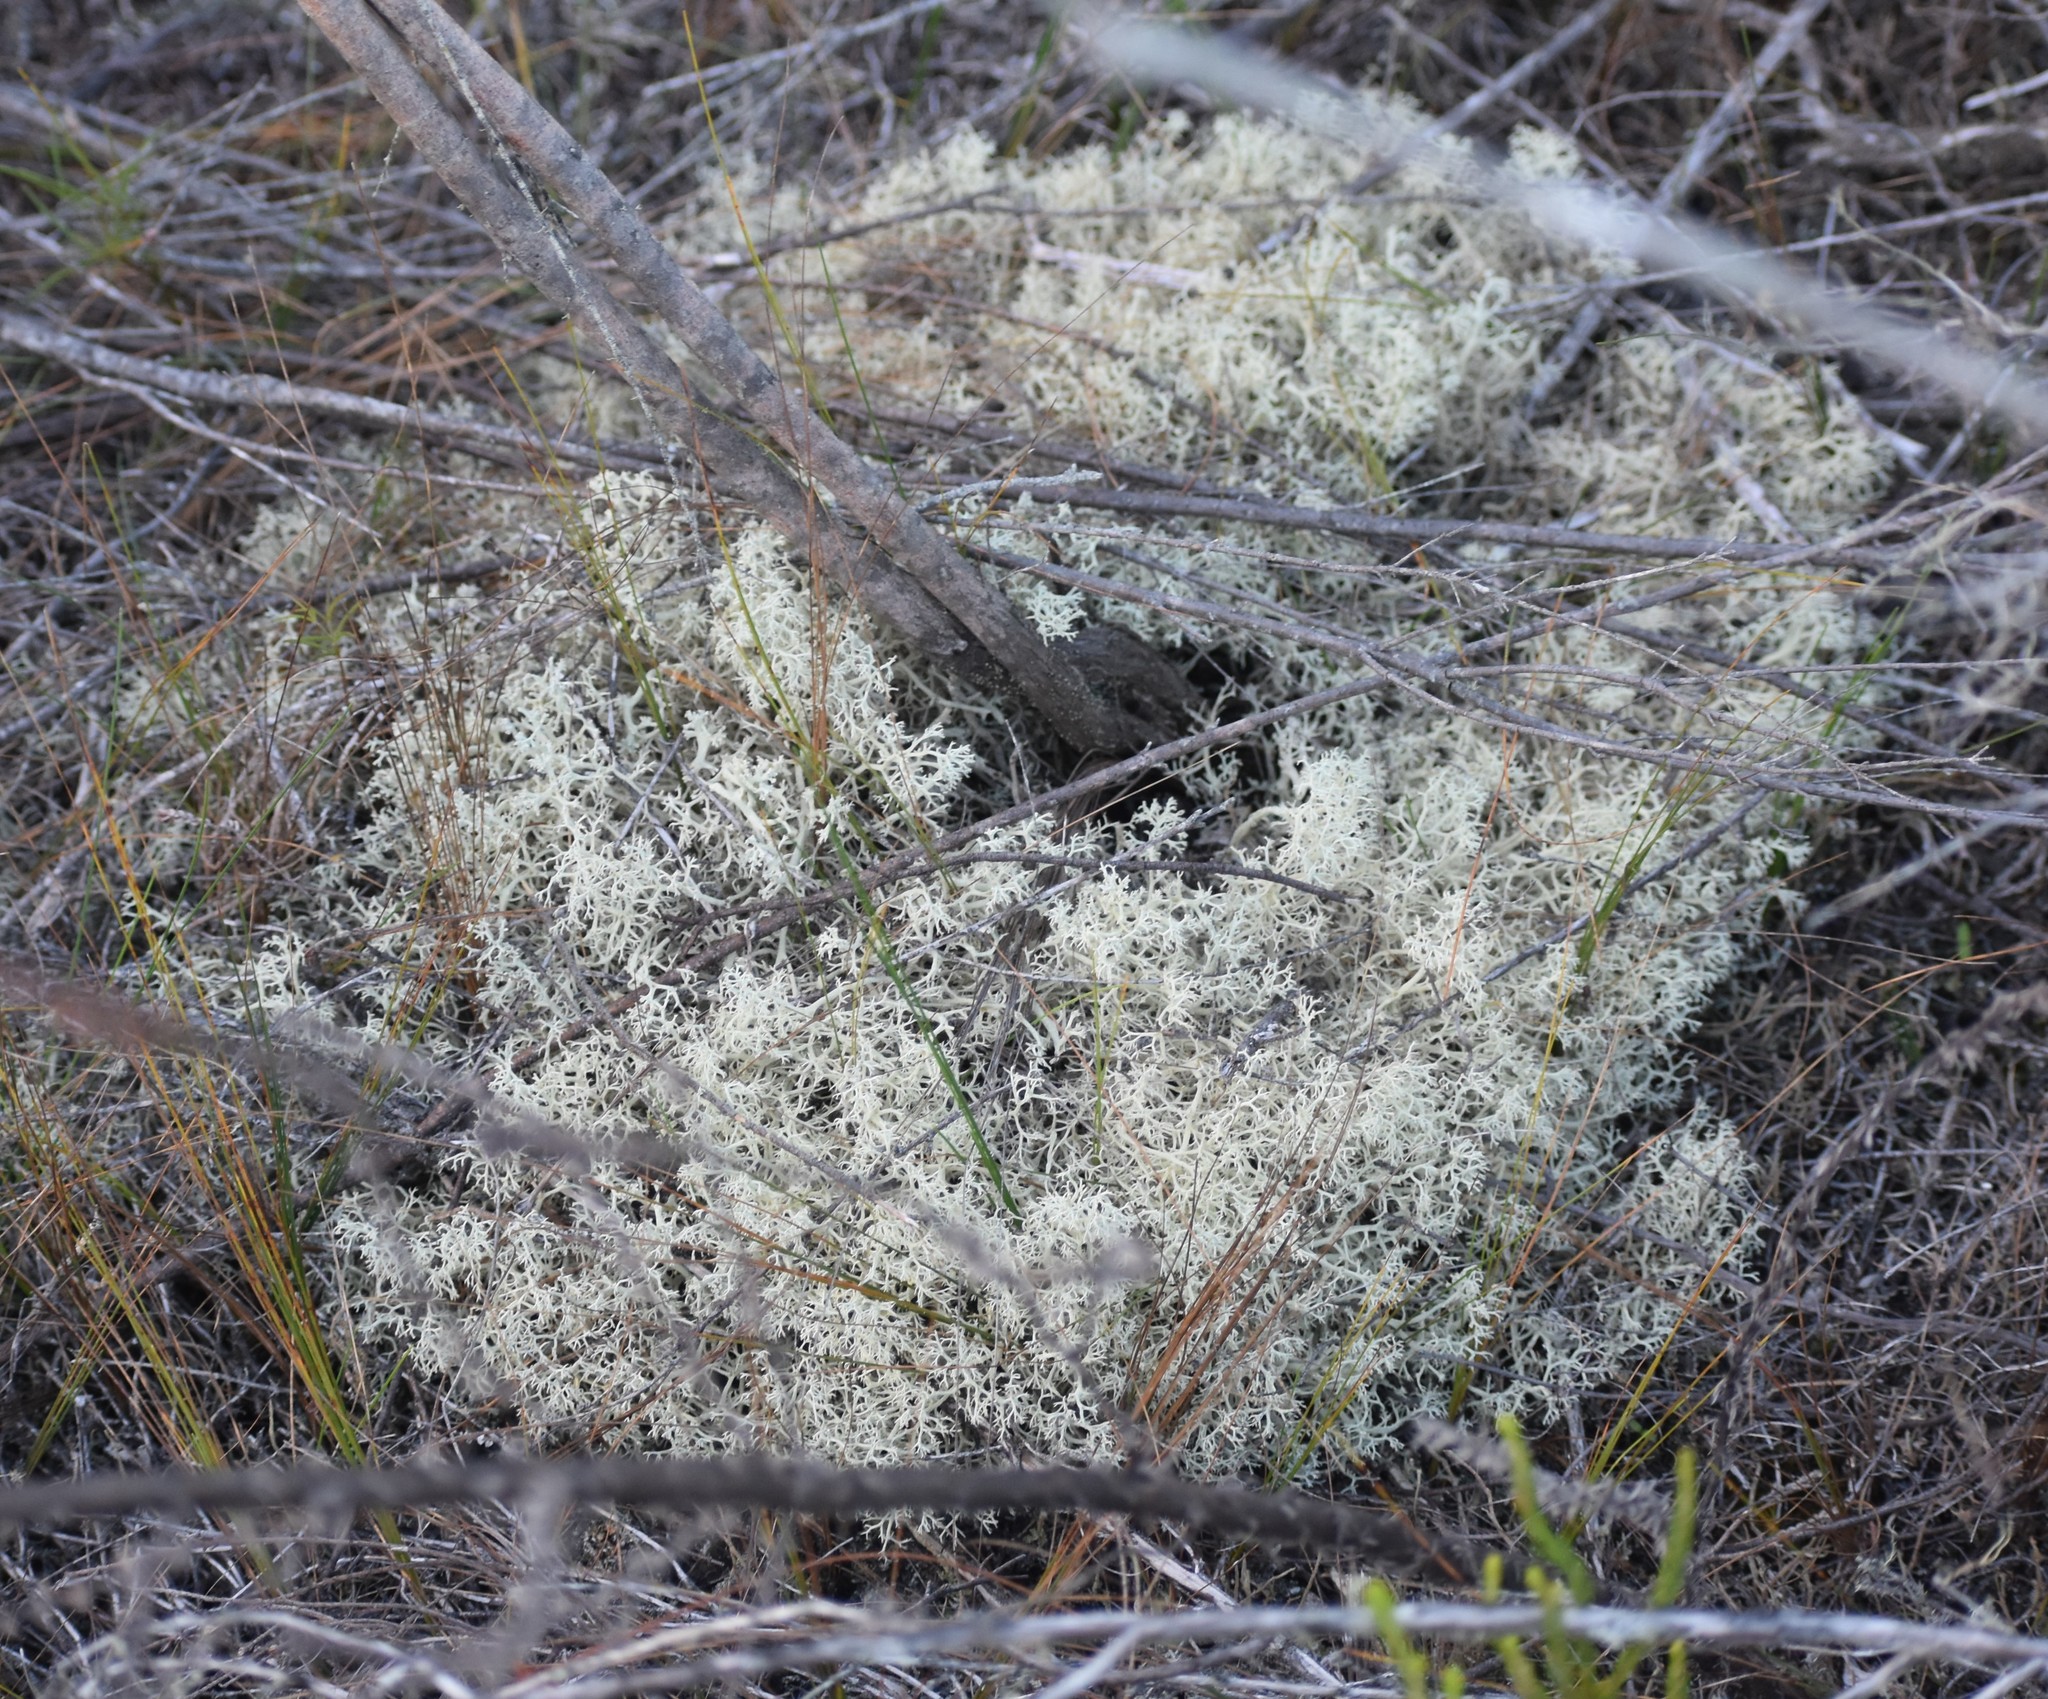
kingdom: Fungi
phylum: Ascomycota
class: Lecanoromycetes
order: Lecanorales
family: Cladoniaceae
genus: Cladonia
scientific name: Cladonia confusa
